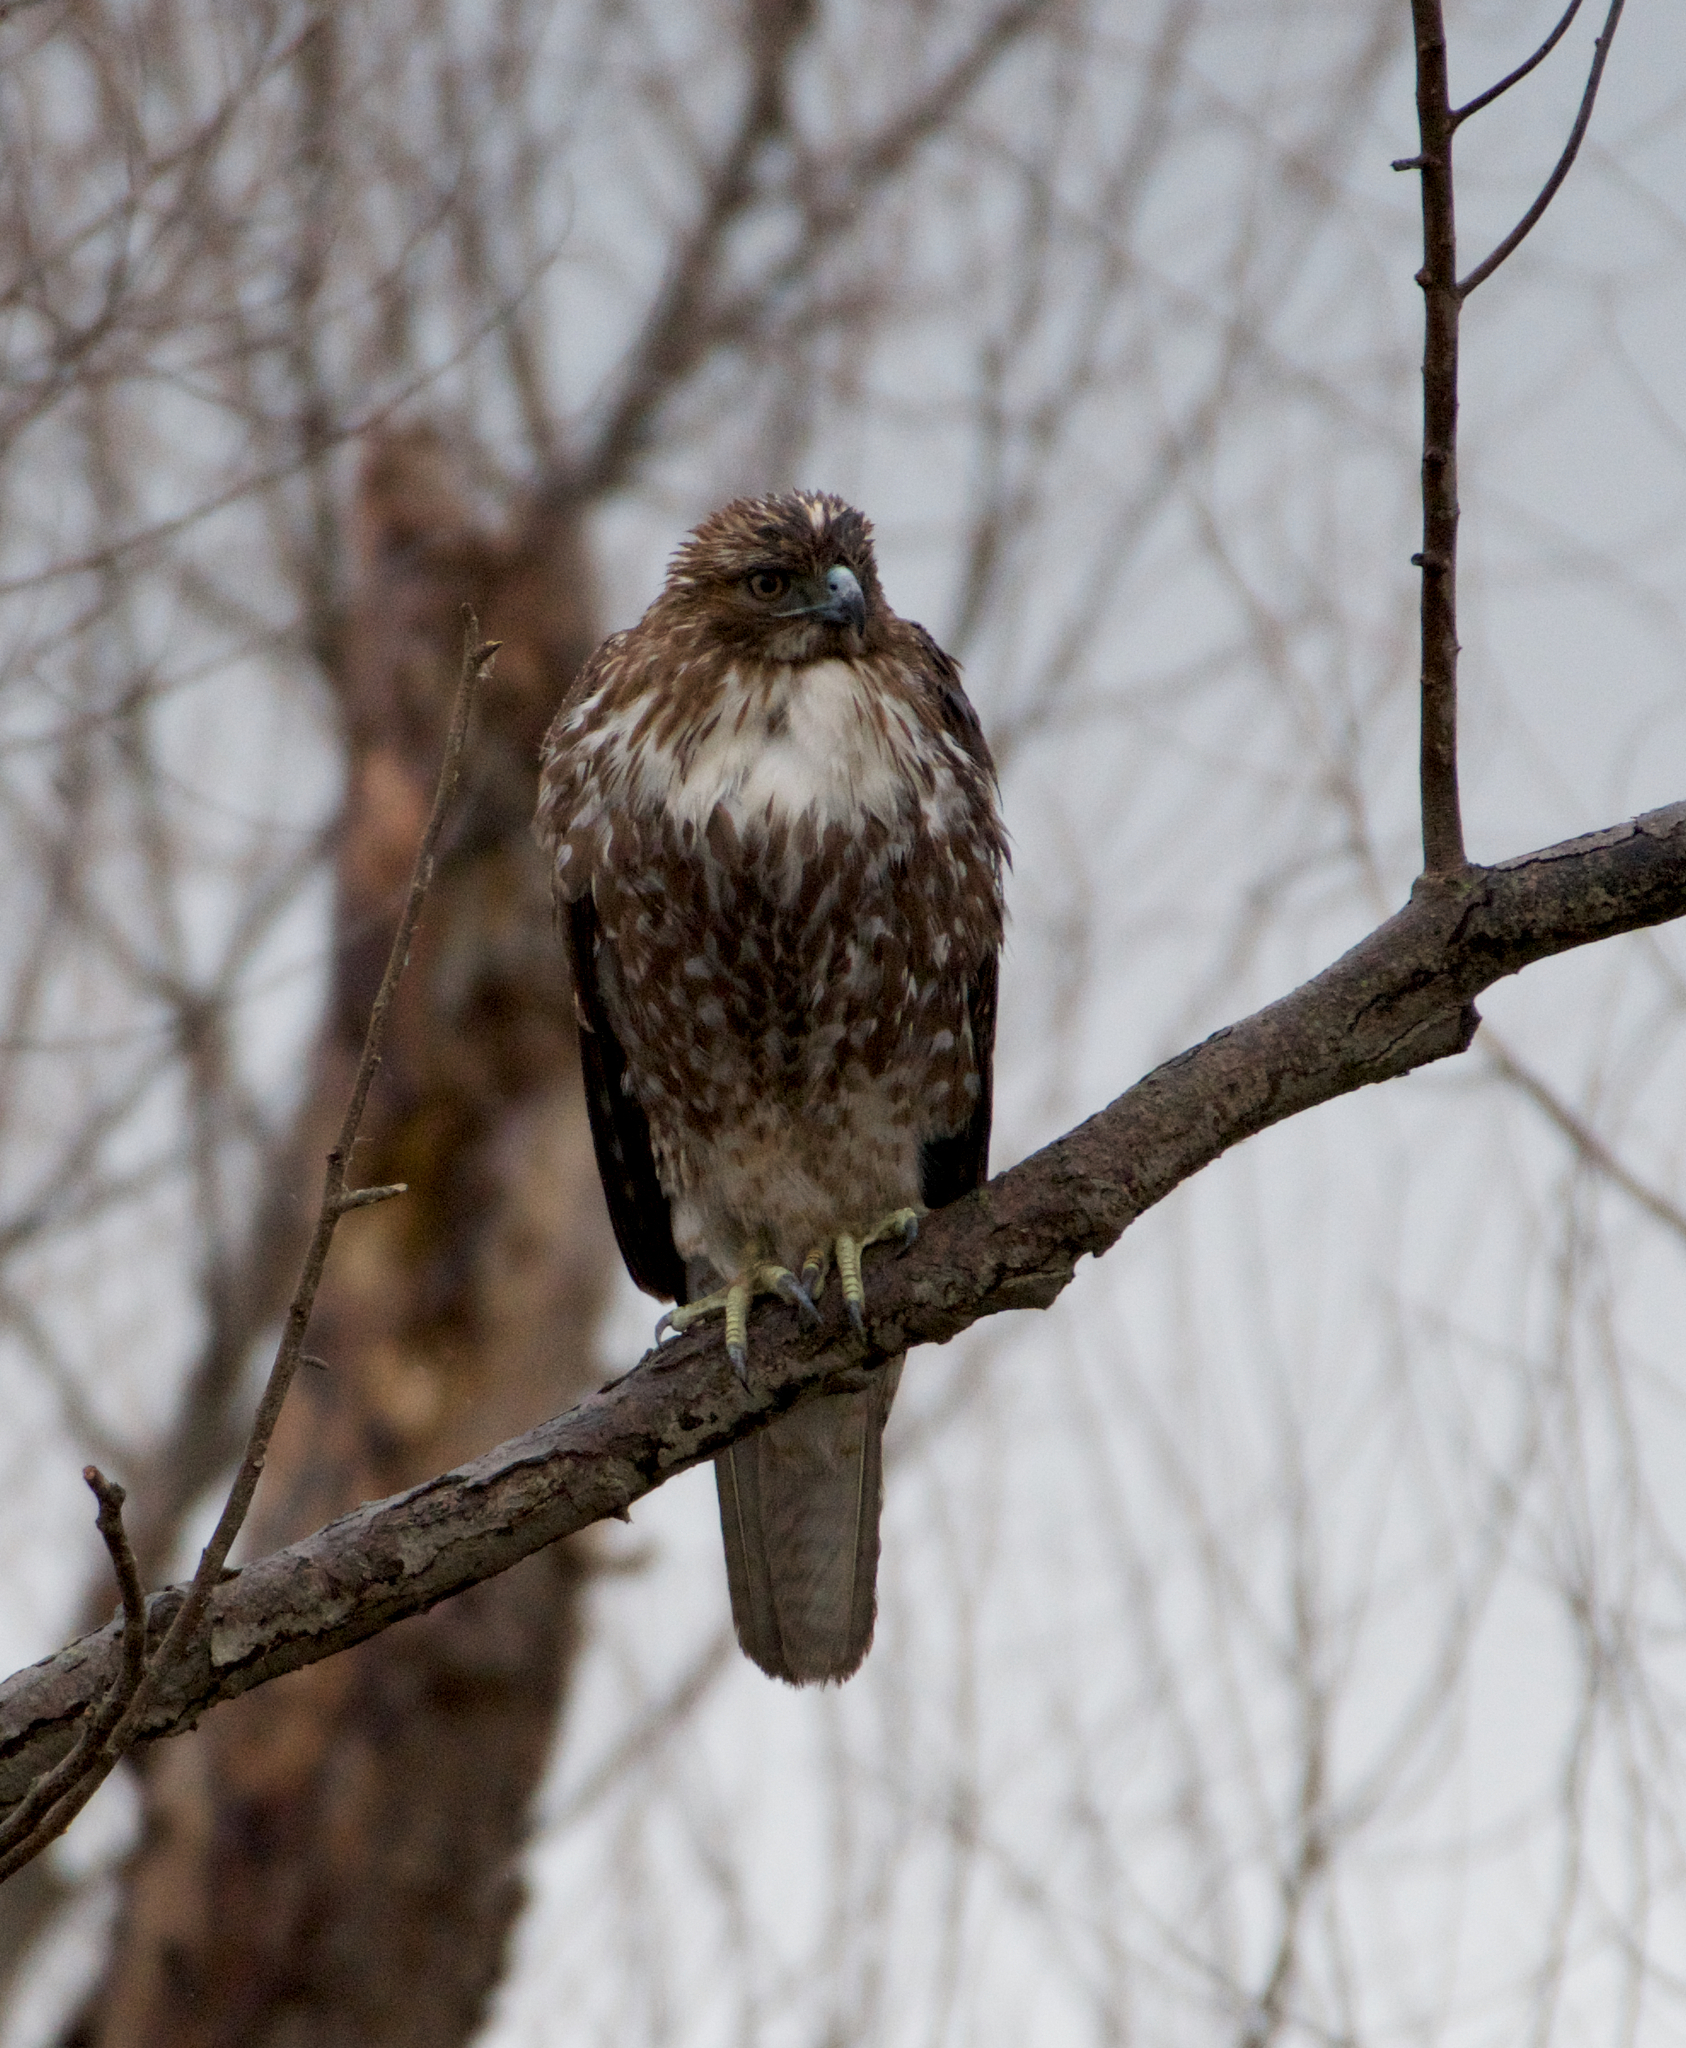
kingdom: Animalia
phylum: Chordata
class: Aves
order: Accipitriformes
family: Accipitridae
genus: Buteo
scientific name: Buteo jamaicensis
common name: Red-tailed hawk
